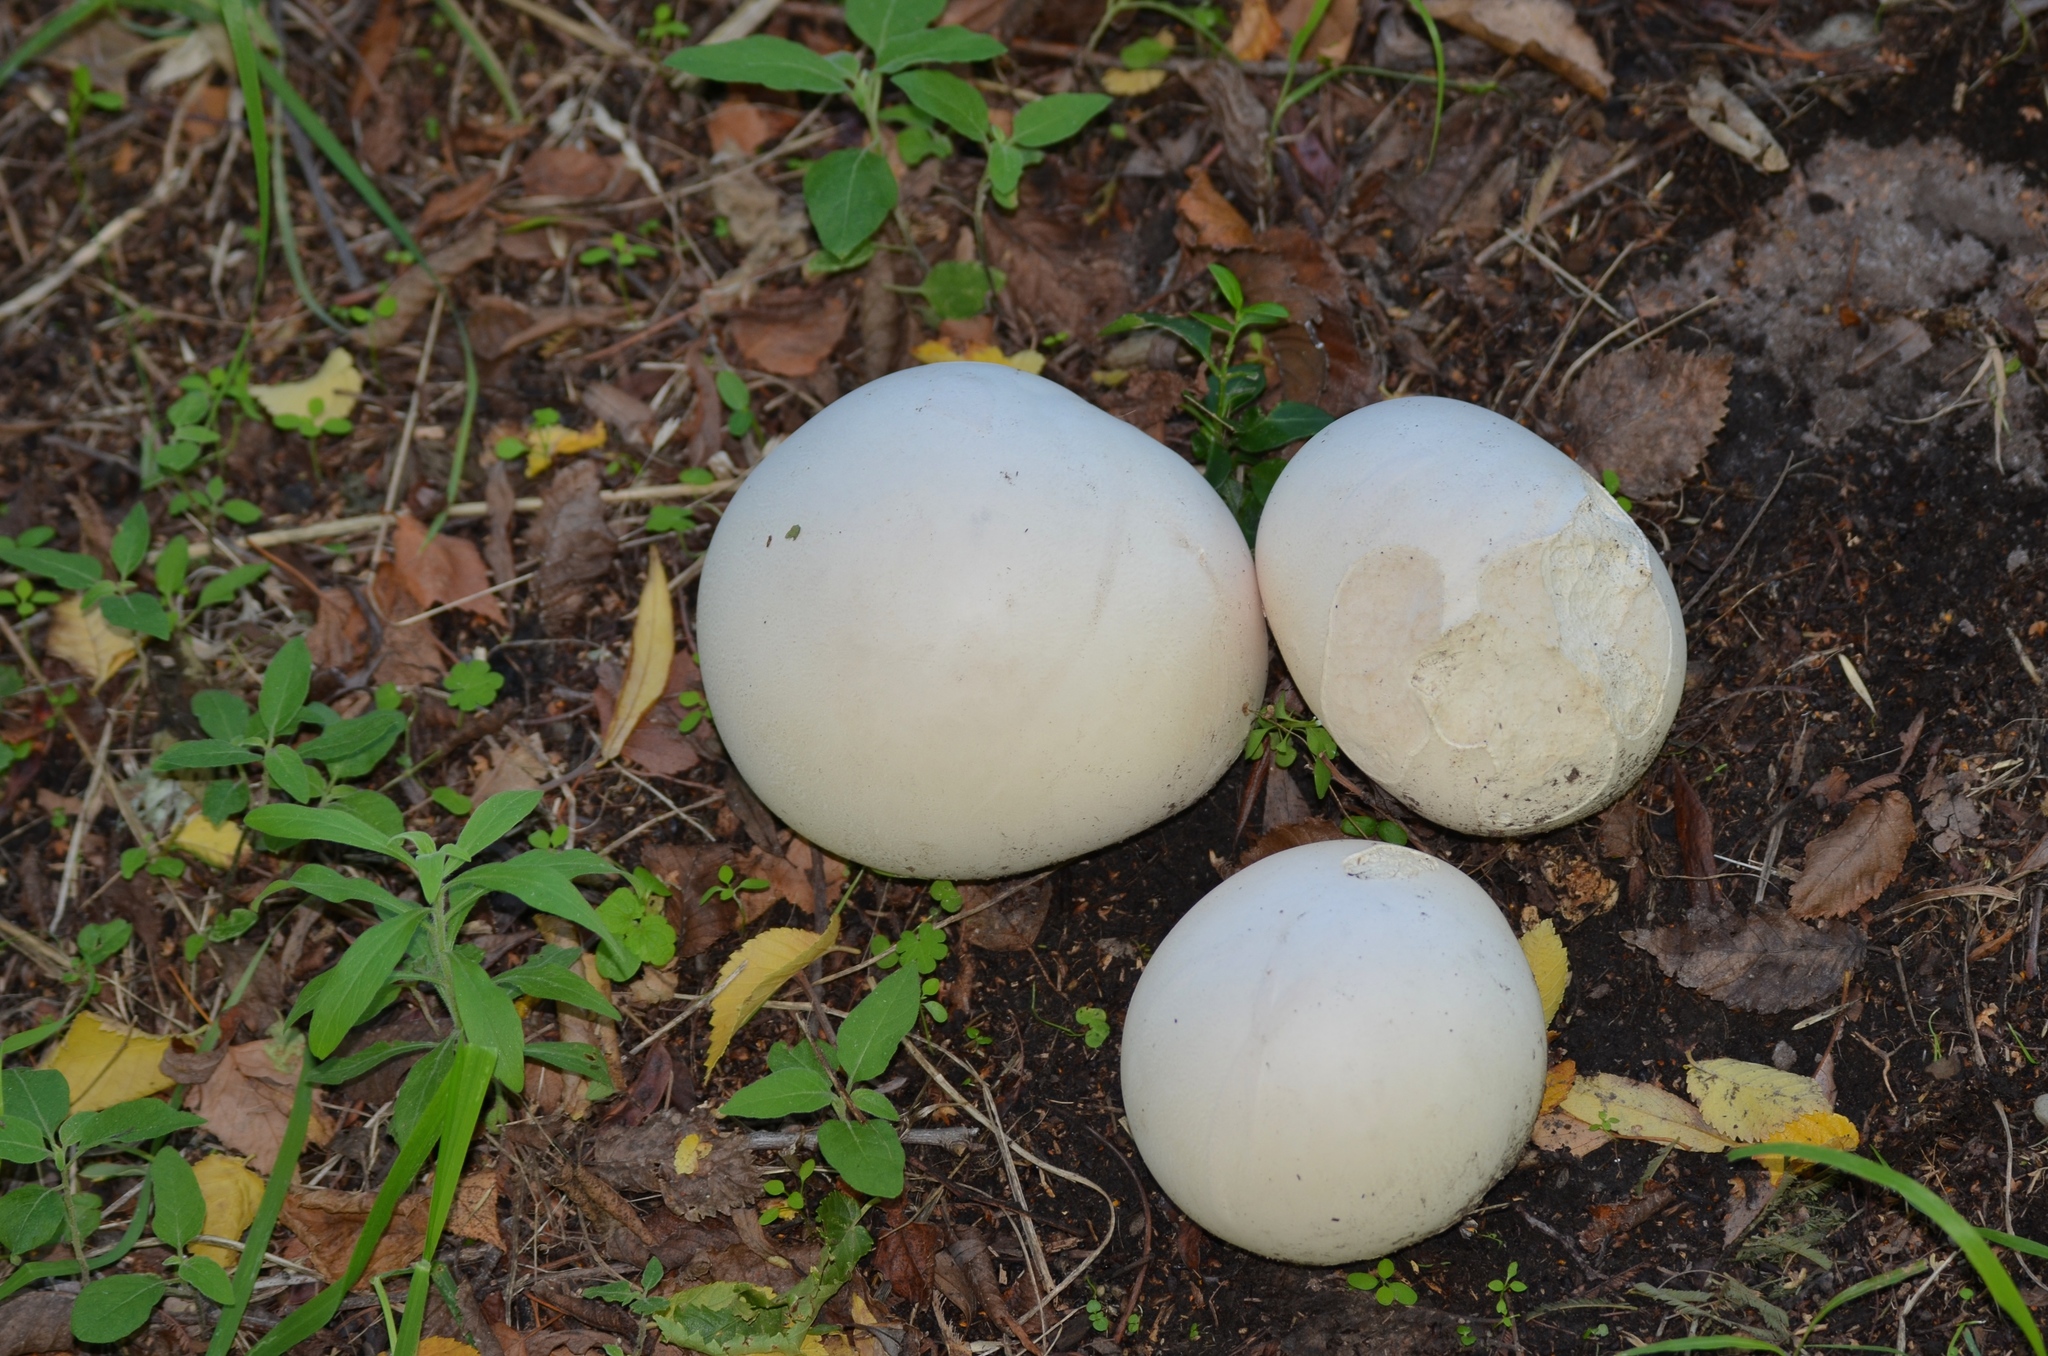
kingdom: Fungi
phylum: Basidiomycota
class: Agaricomycetes
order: Agaricales
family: Lycoperdaceae
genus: Calvatia
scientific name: Calvatia gigantea
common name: Giant puffball
